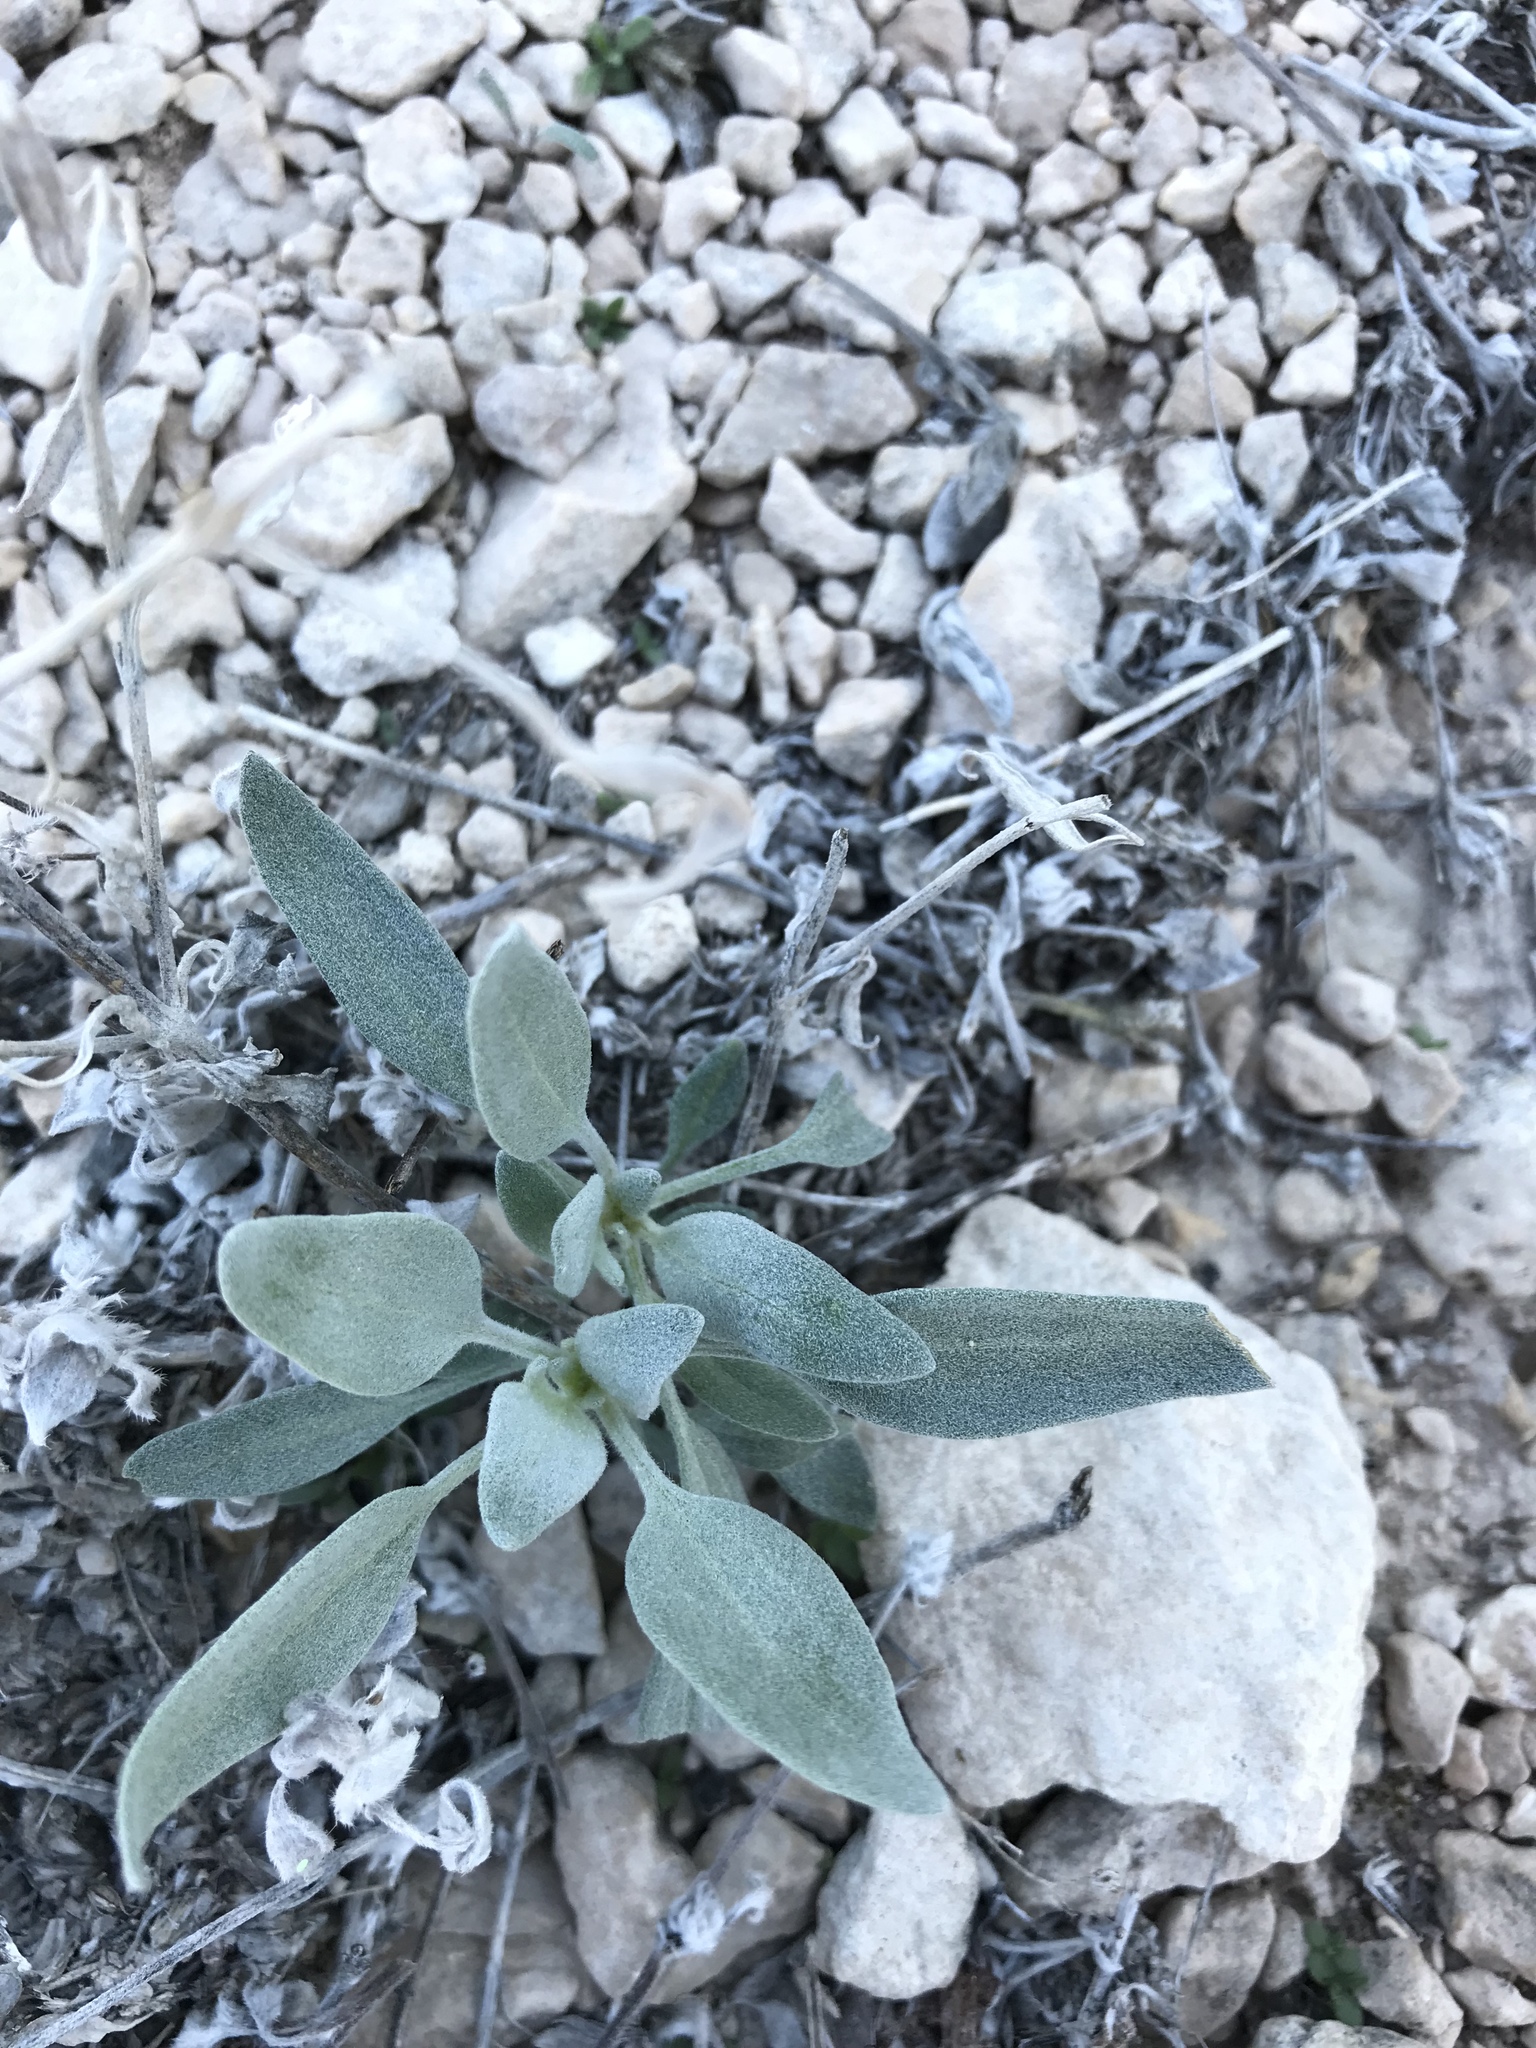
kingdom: Plantae
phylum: Tracheophyta
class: Magnoliopsida
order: Asterales
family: Asteraceae
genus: Picradeniopsis
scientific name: Picradeniopsis absinthifolia
